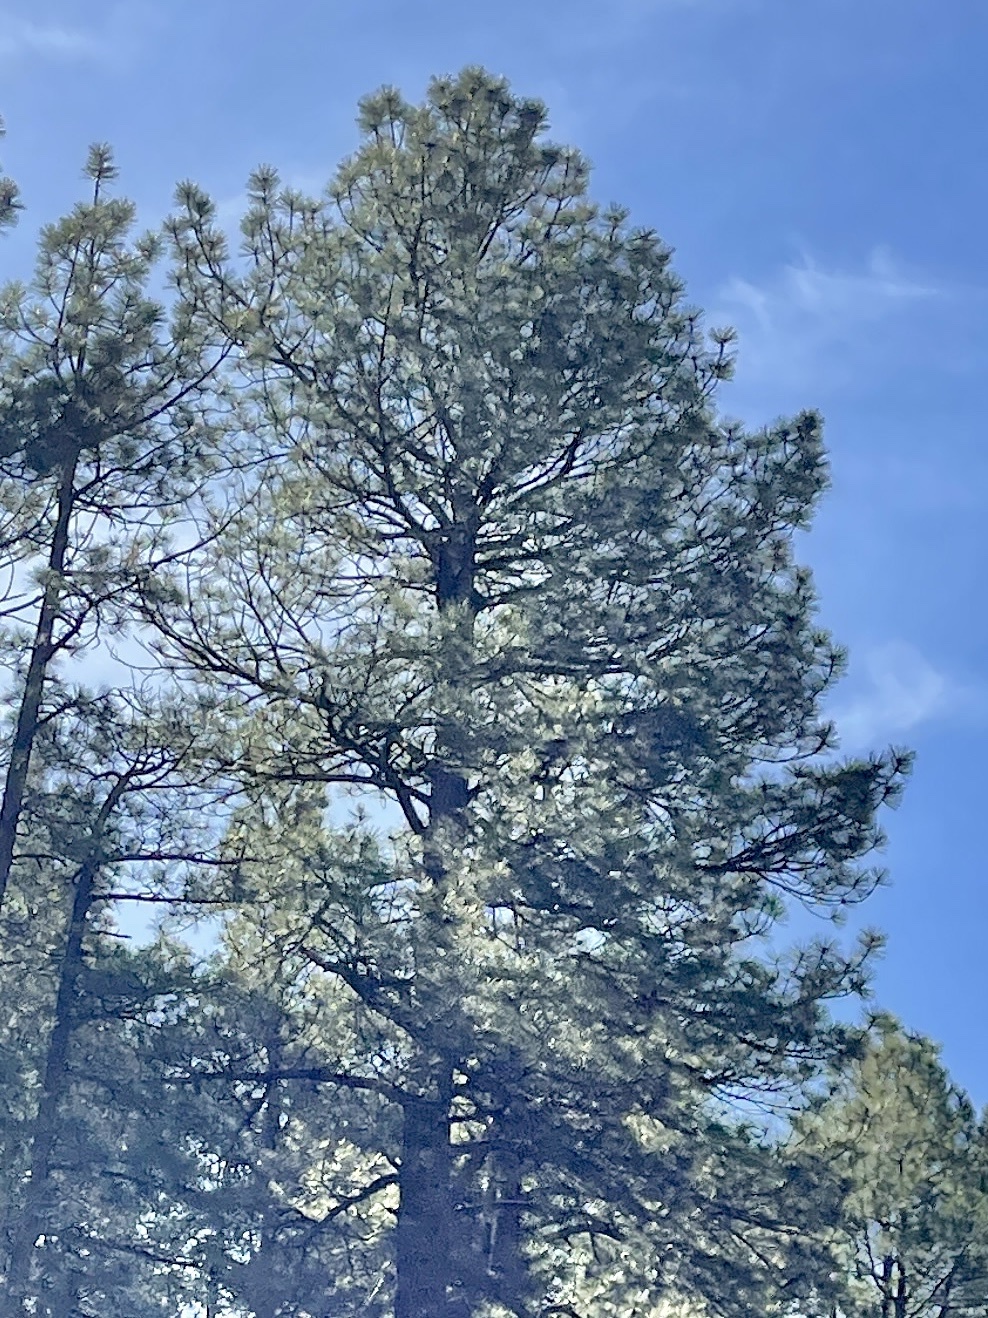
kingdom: Plantae
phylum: Tracheophyta
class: Pinopsida
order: Pinales
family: Pinaceae
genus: Pinus
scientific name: Pinus ponderosa
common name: Western yellow-pine
